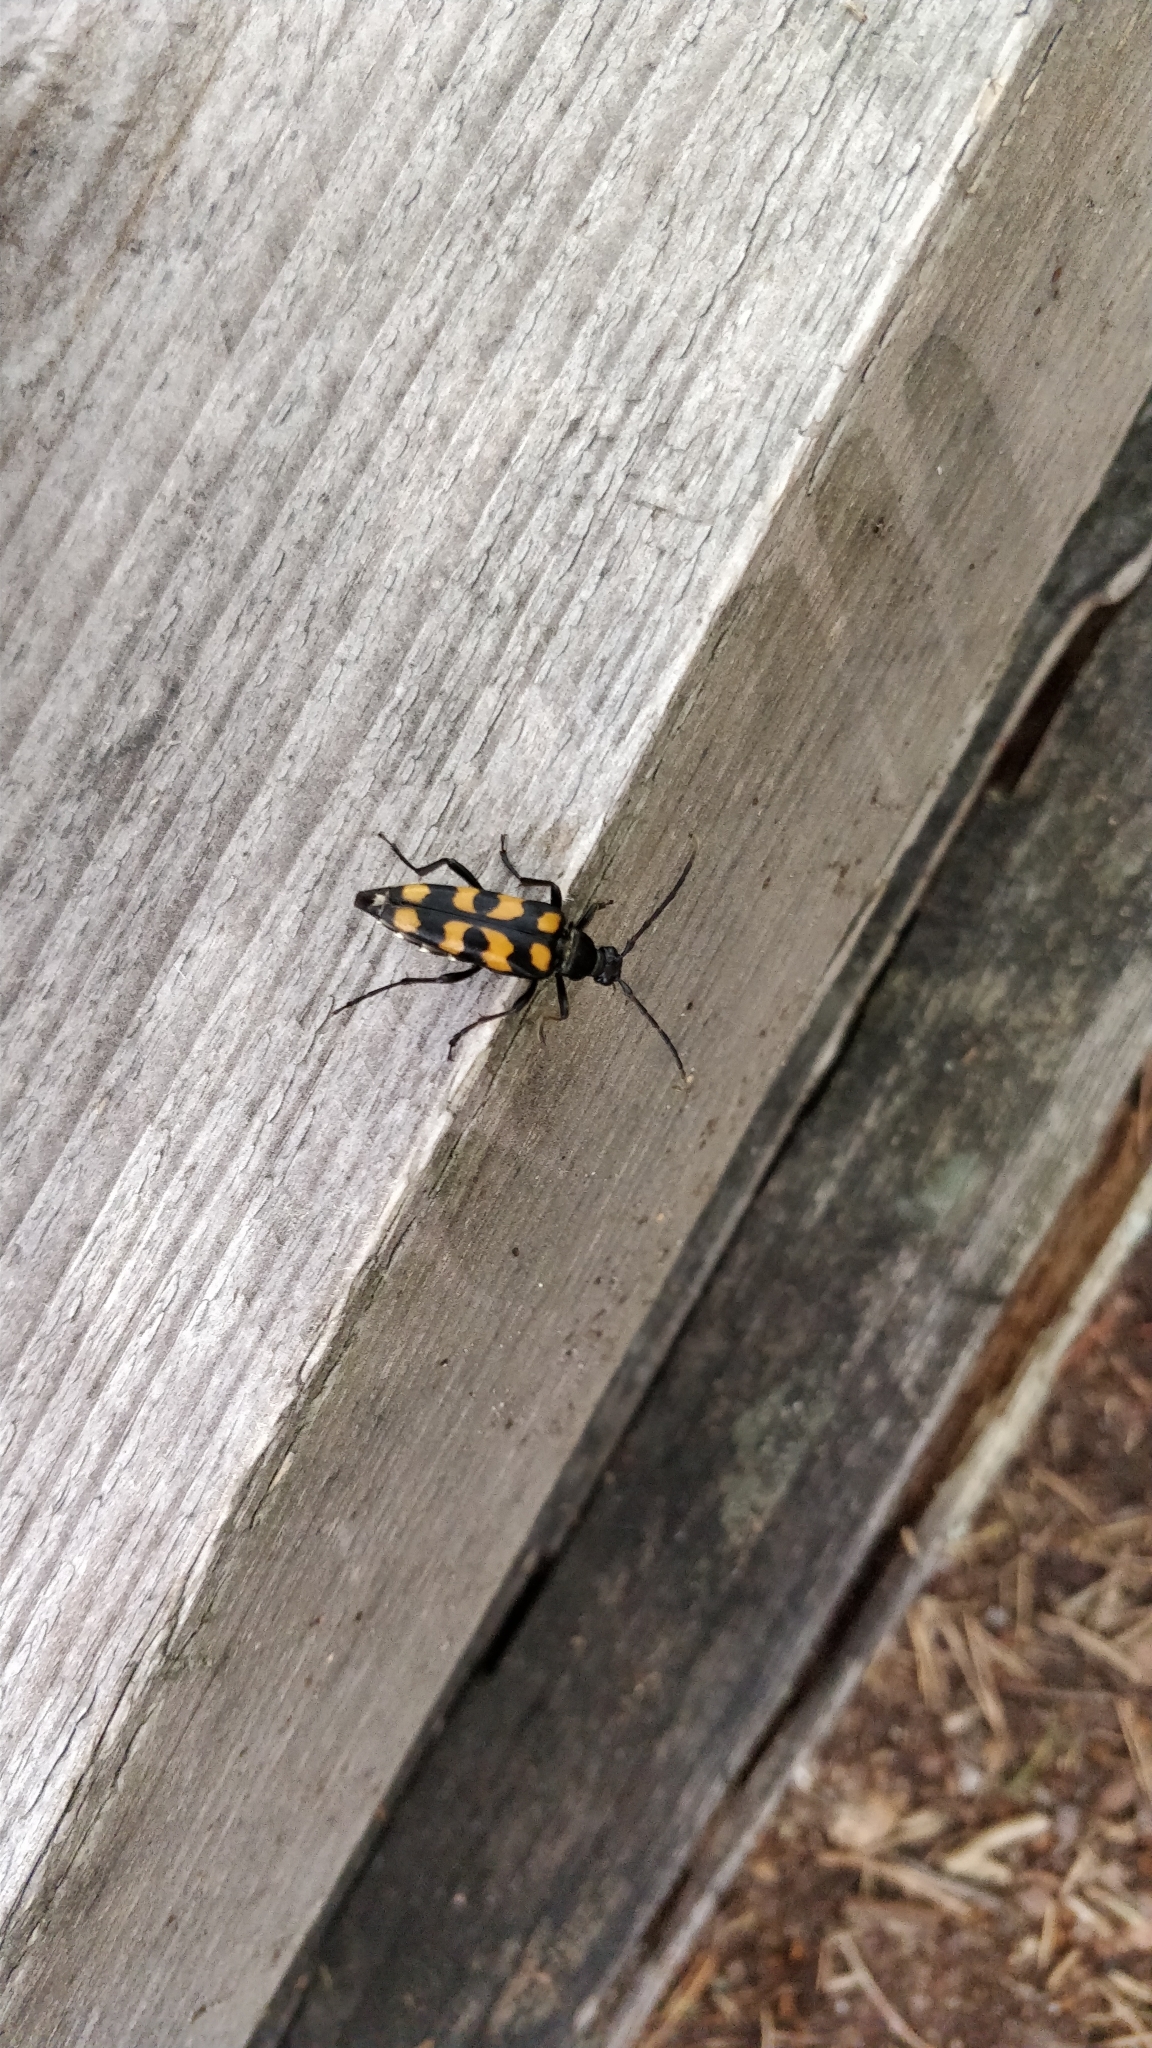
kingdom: Animalia
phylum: Arthropoda
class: Insecta
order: Coleoptera
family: Cerambycidae
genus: Leptura
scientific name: Leptura quadrifasciata
